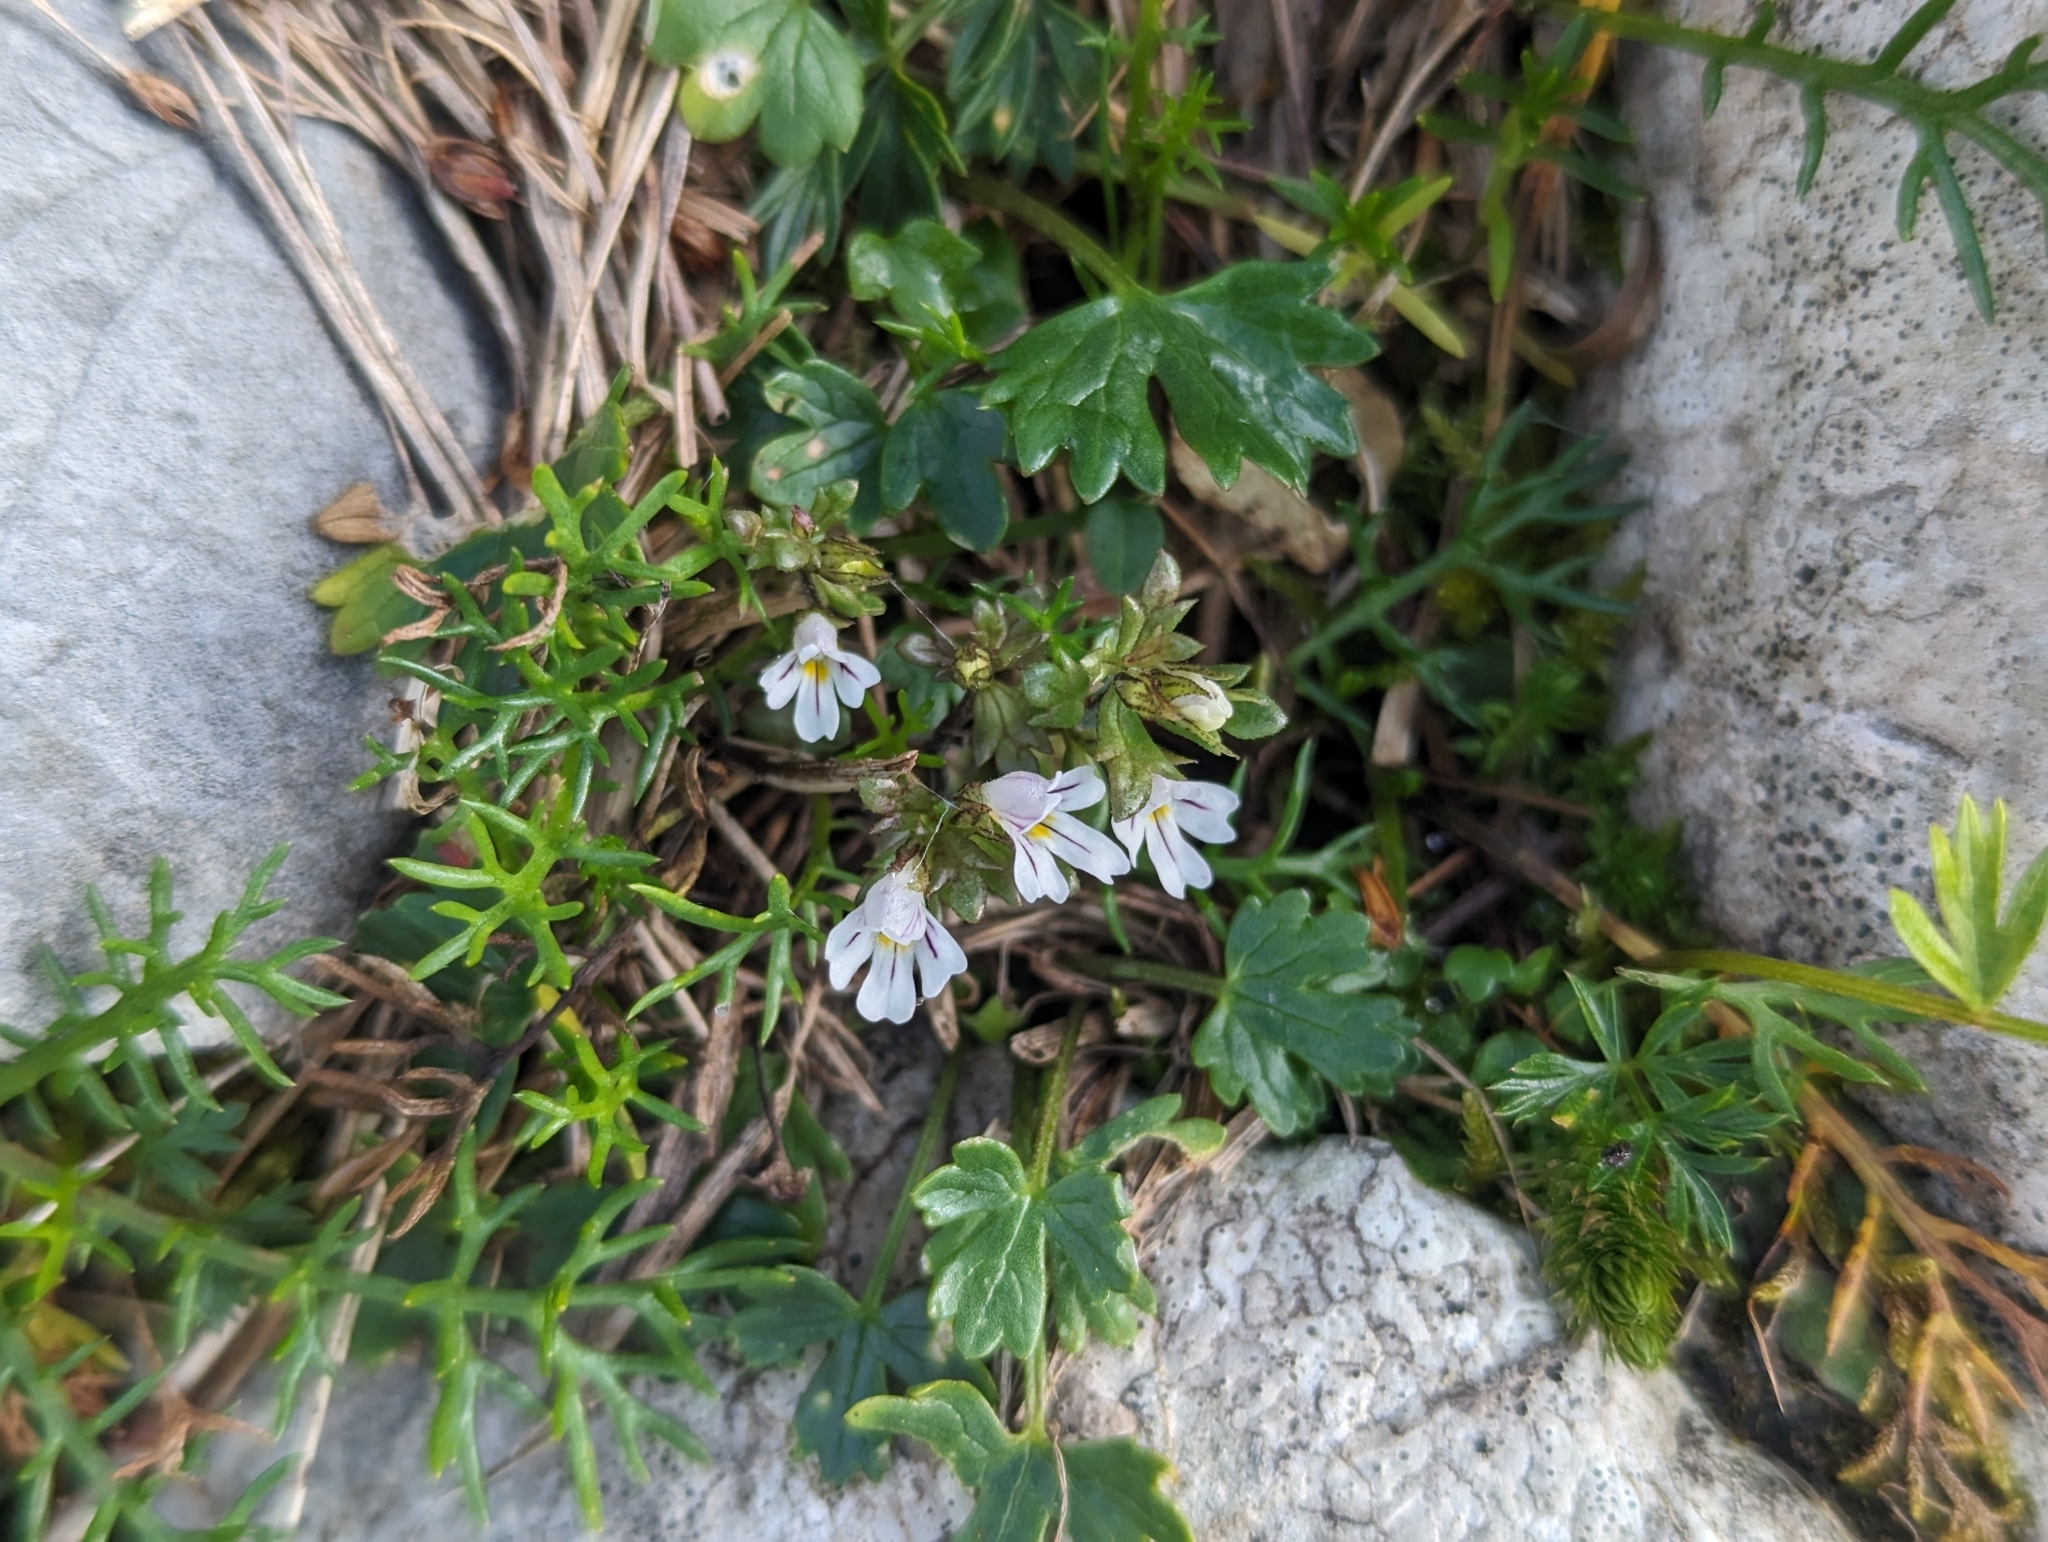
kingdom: Plantae
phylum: Tracheophyta
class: Magnoliopsida
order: Lamiales
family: Orobanchaceae
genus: Euphrasia
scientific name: Euphrasia minima
